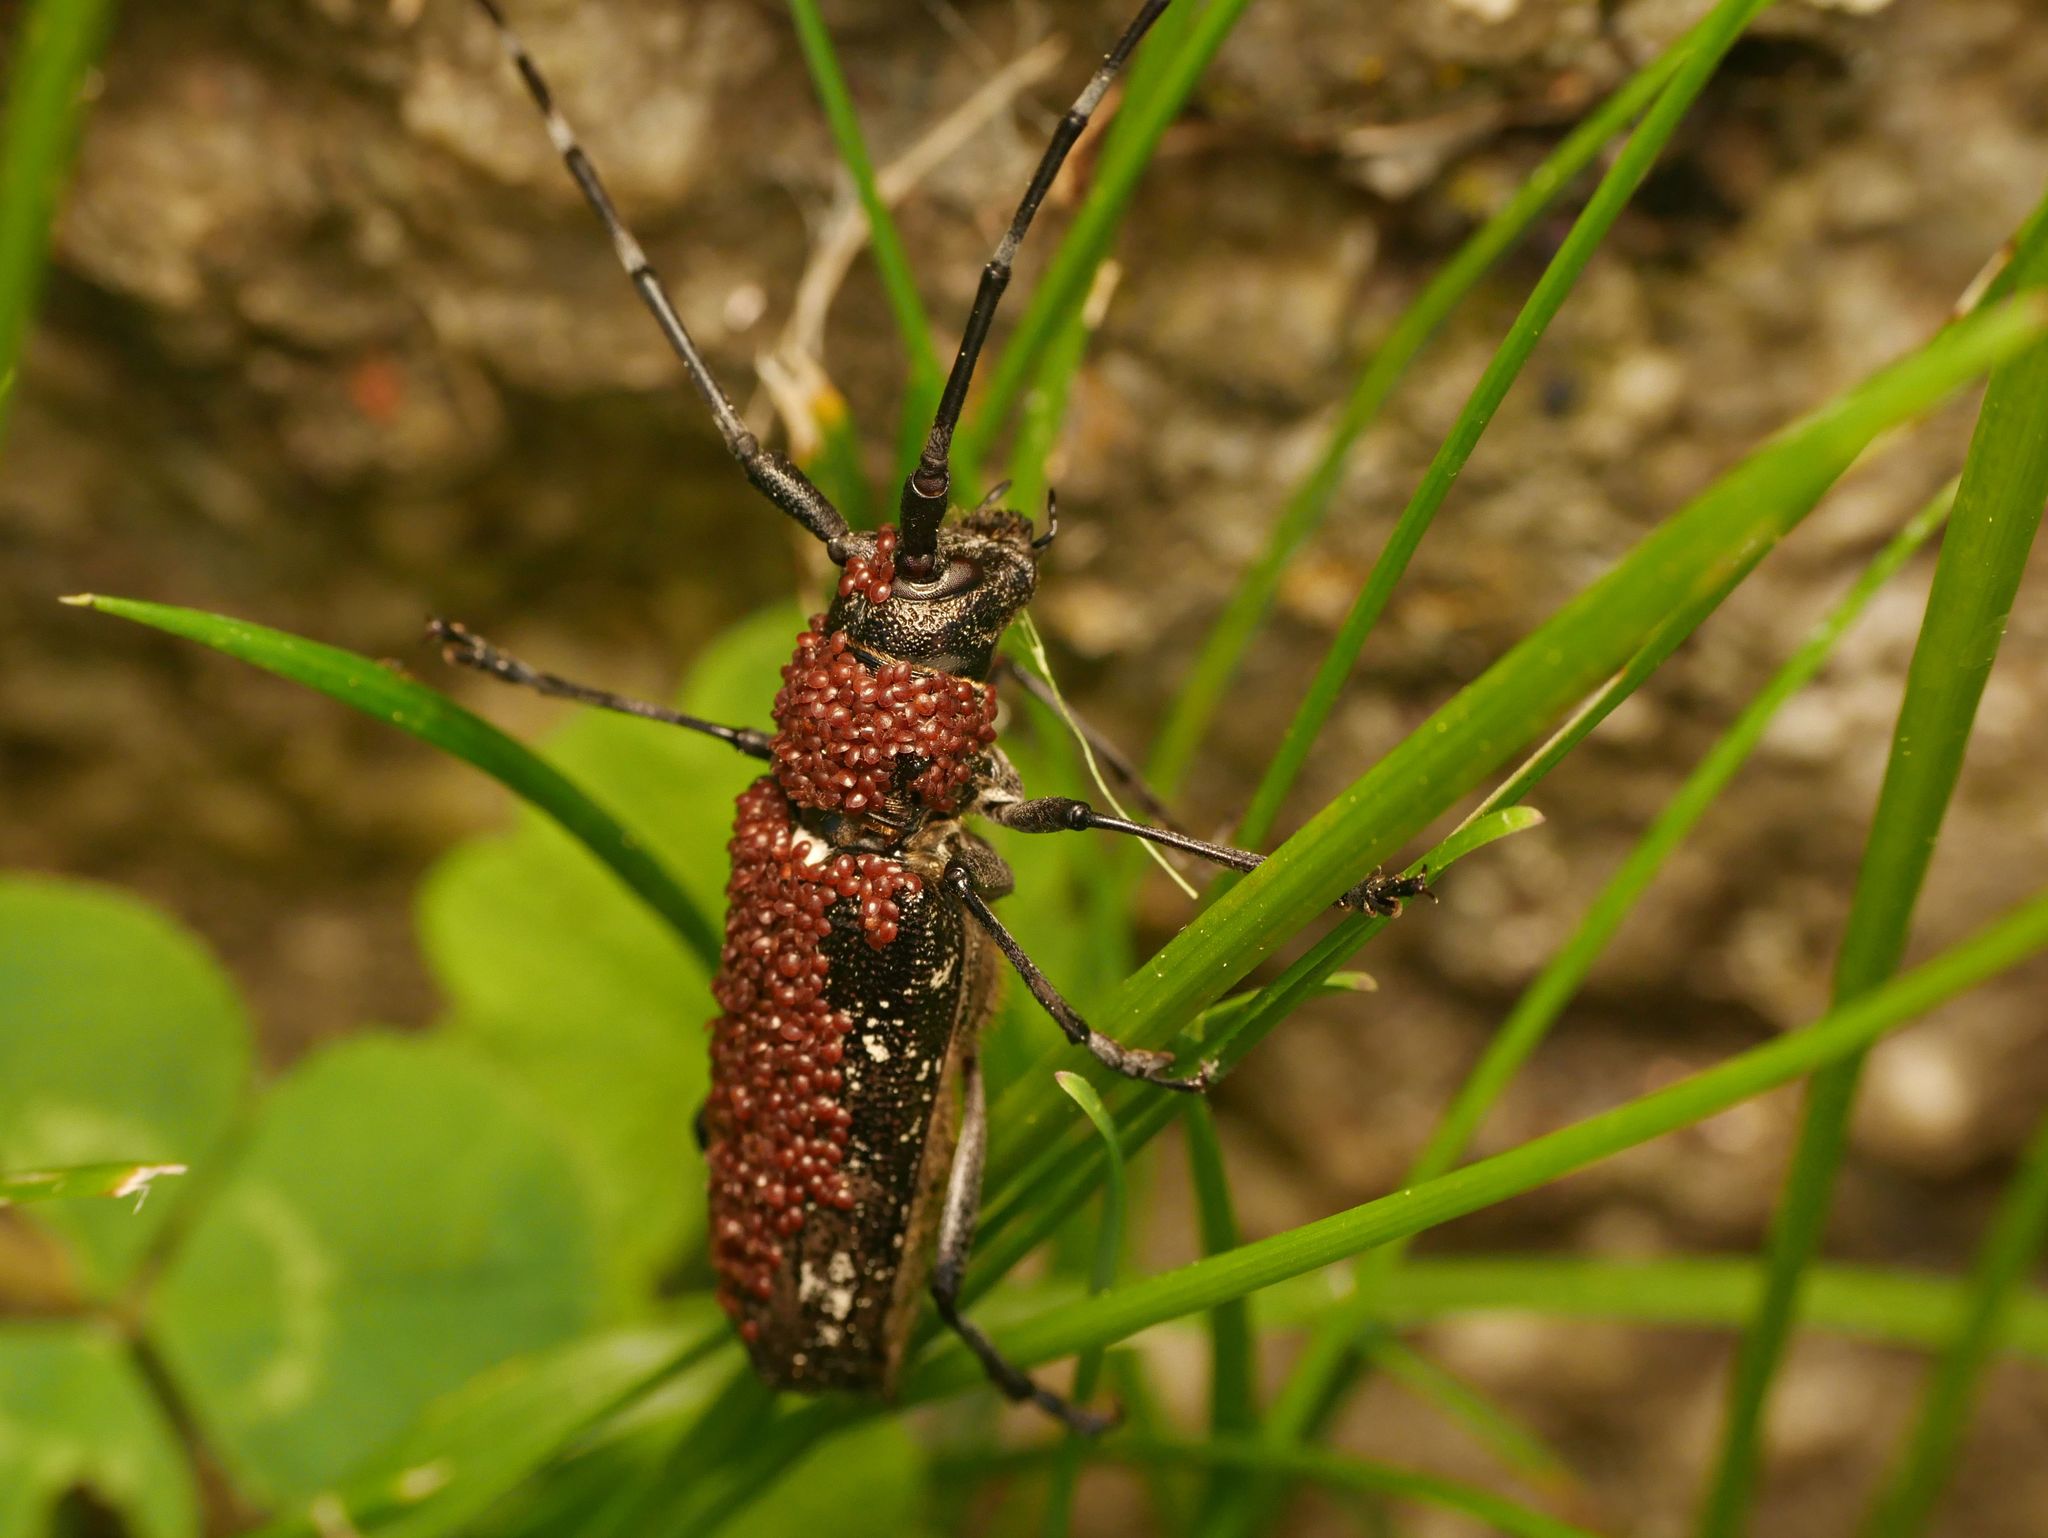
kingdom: Animalia
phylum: Arthropoda
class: Insecta
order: Coleoptera
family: Cerambycidae
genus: Monochamus
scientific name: Monochamus scutellatus
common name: White-spotted sawyer beetle
